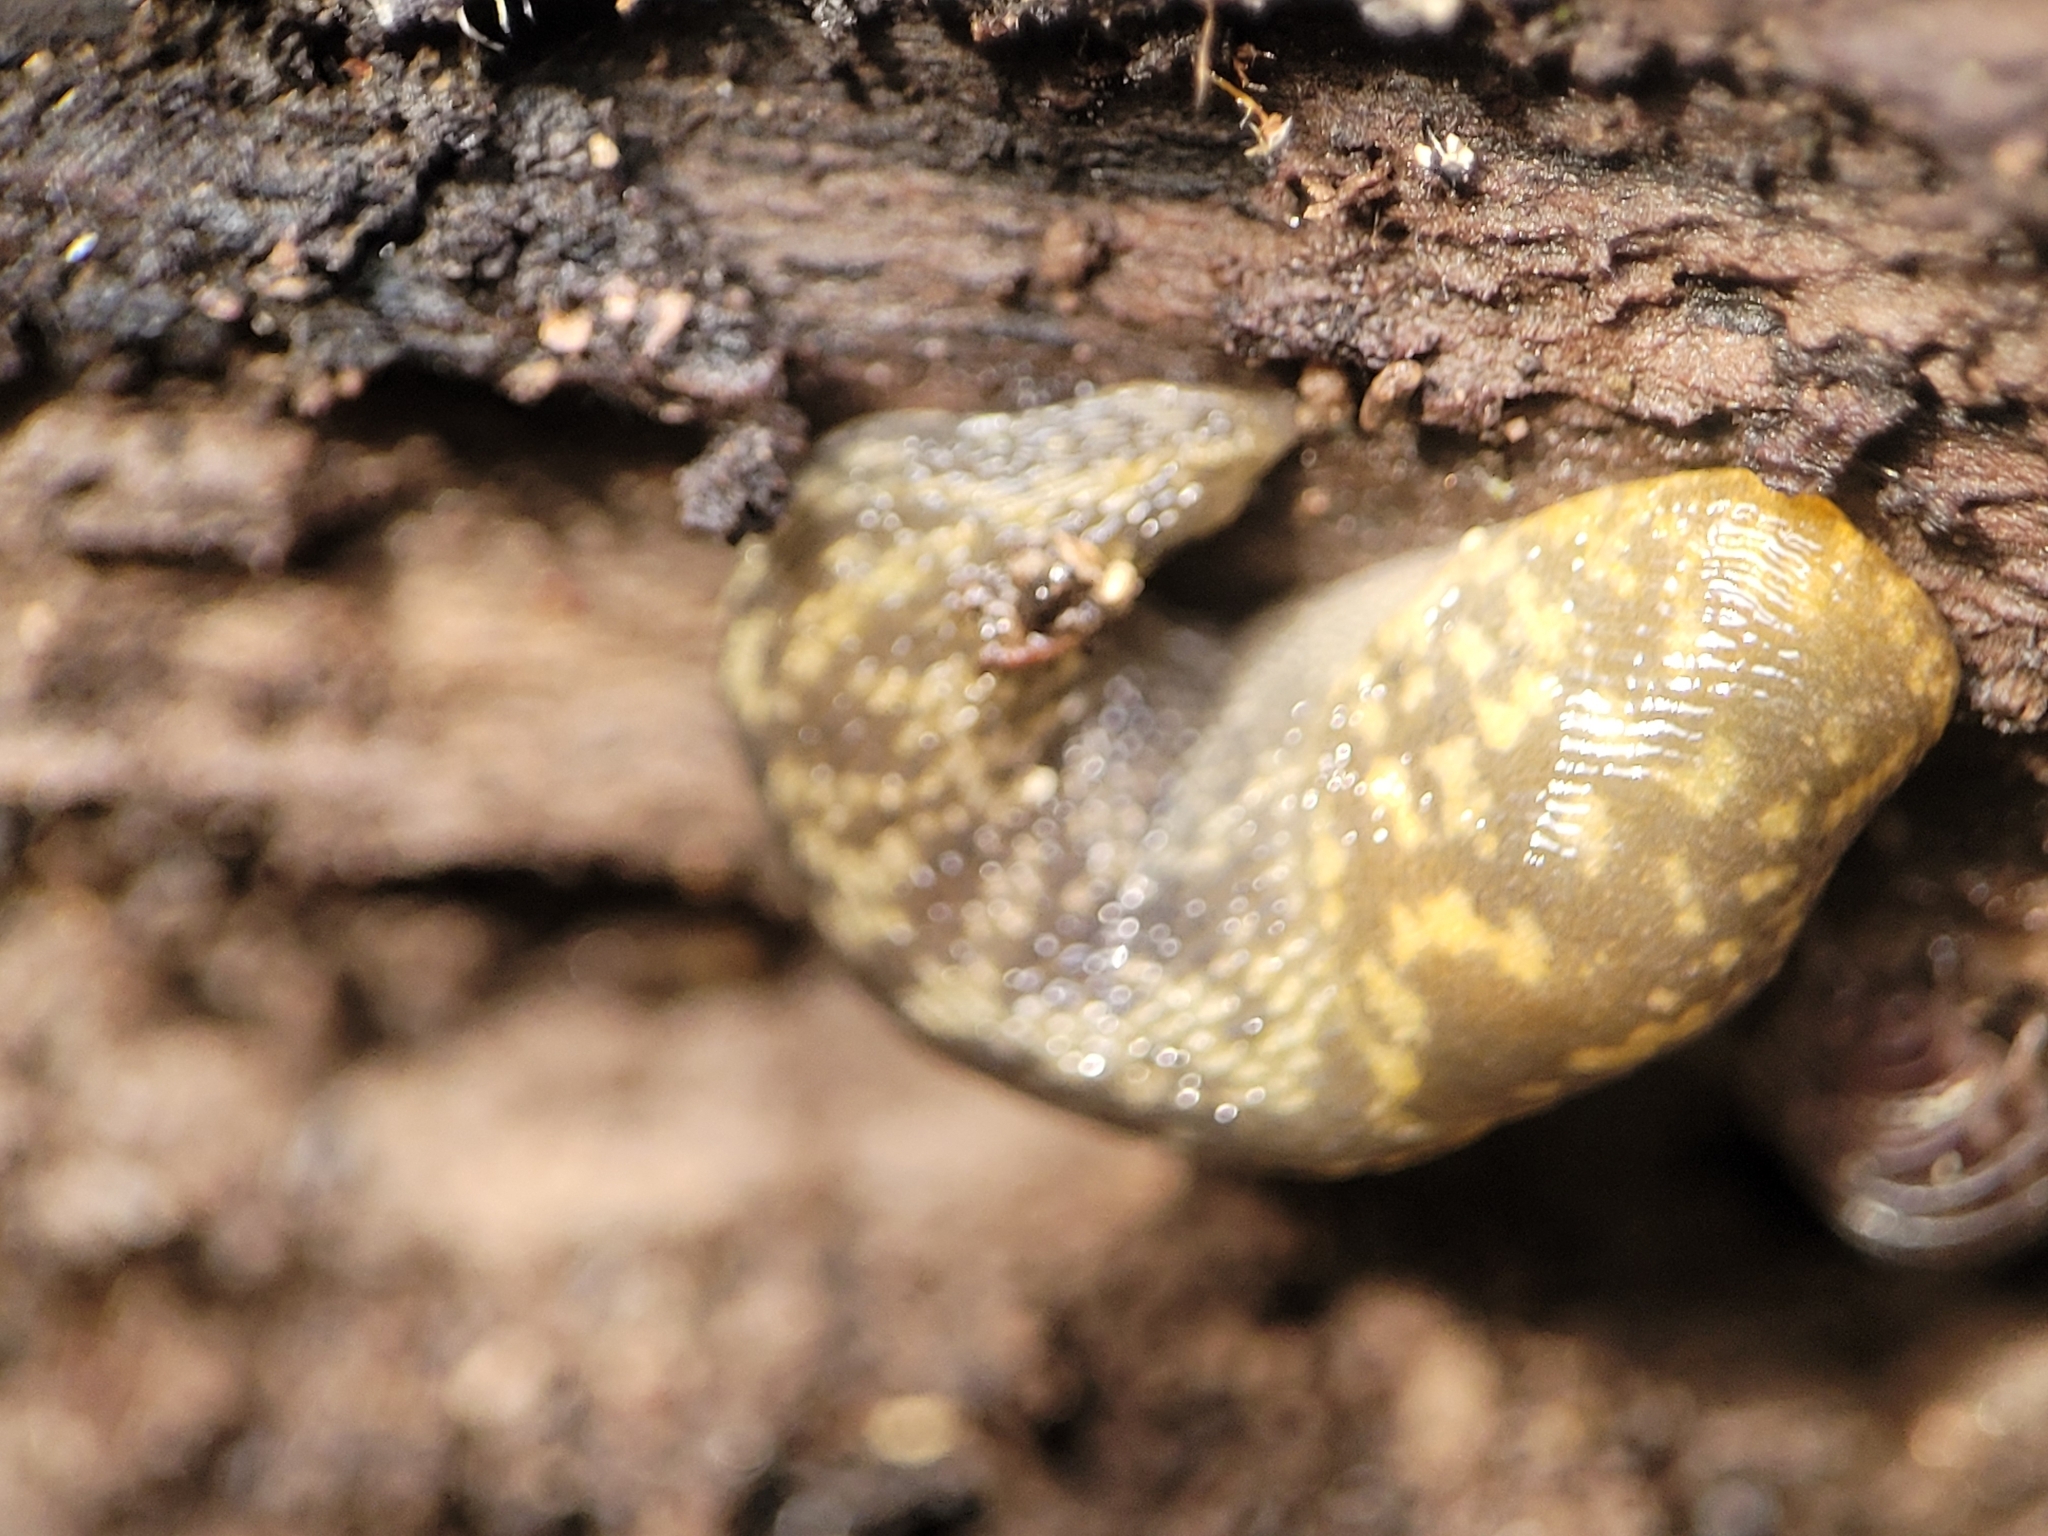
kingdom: Animalia
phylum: Mollusca
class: Gastropoda
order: Stylommatophora
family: Limacidae
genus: Limacus
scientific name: Limacus maculatus
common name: Irish yellow slug
